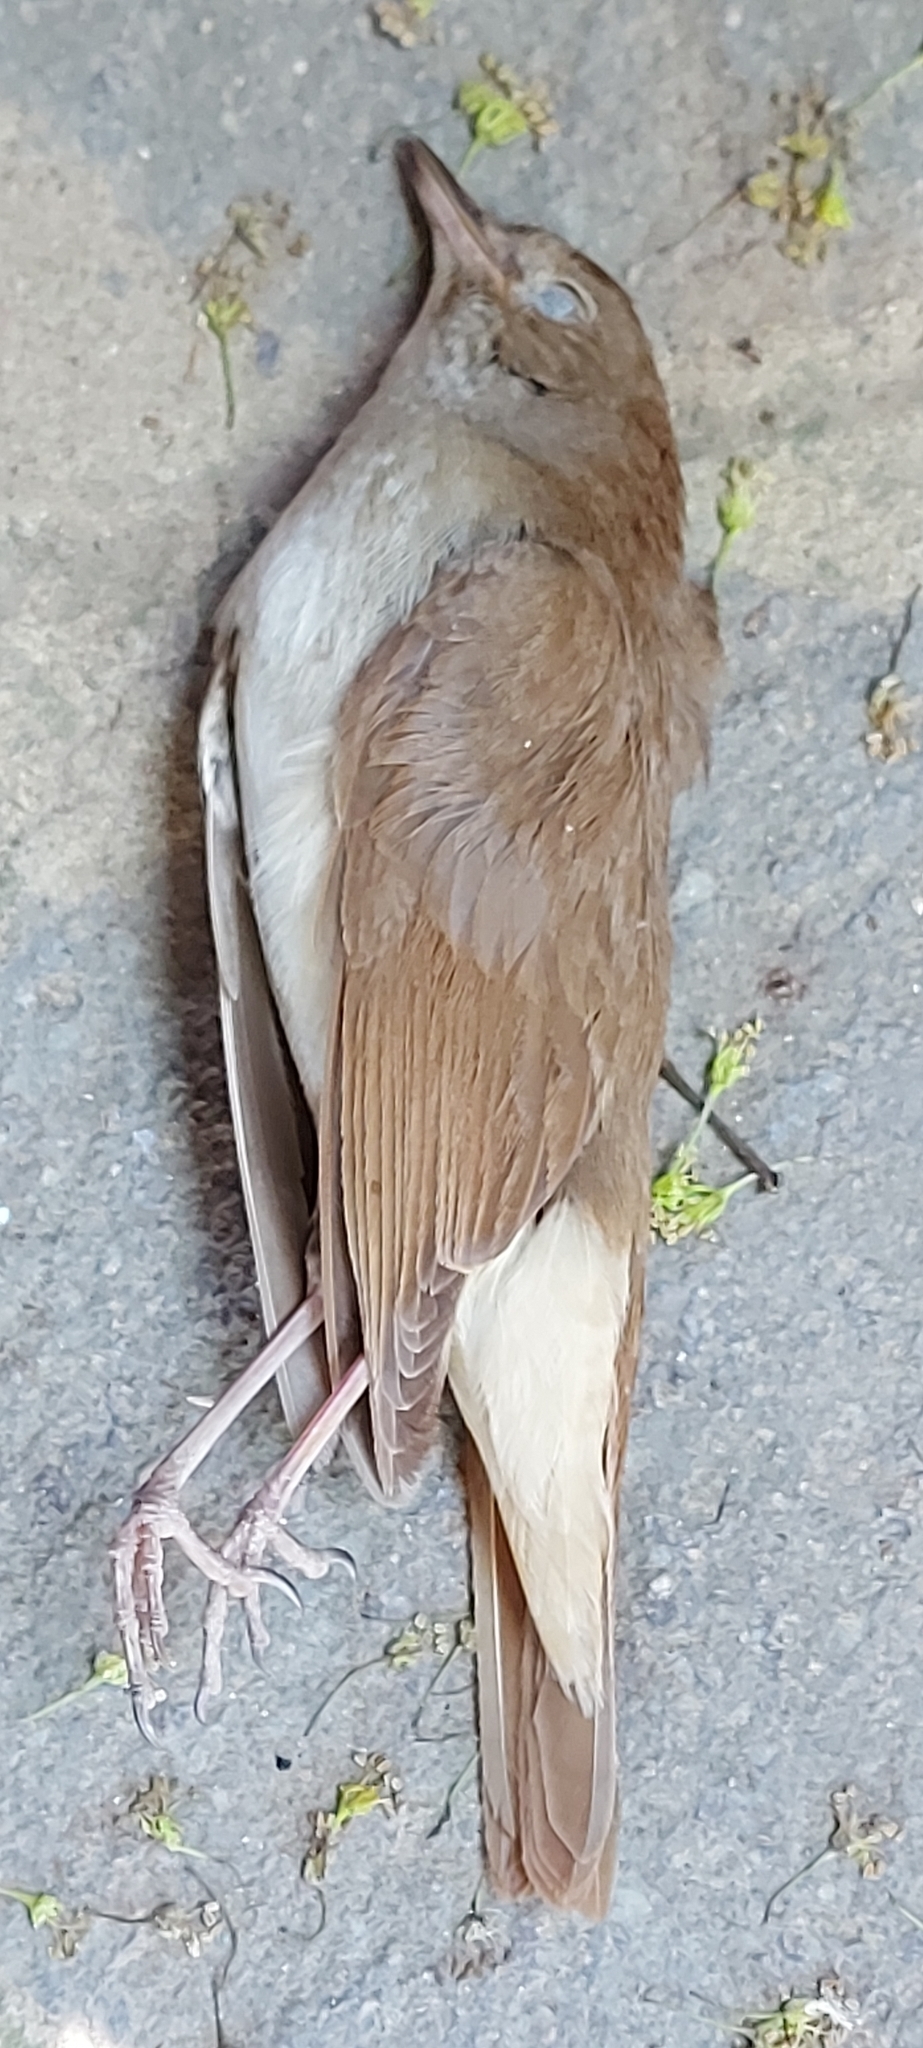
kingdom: Animalia
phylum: Chordata
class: Aves
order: Passeriformes
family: Muscicapidae
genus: Luscinia
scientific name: Luscinia megarhynchos
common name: Common nightingale
